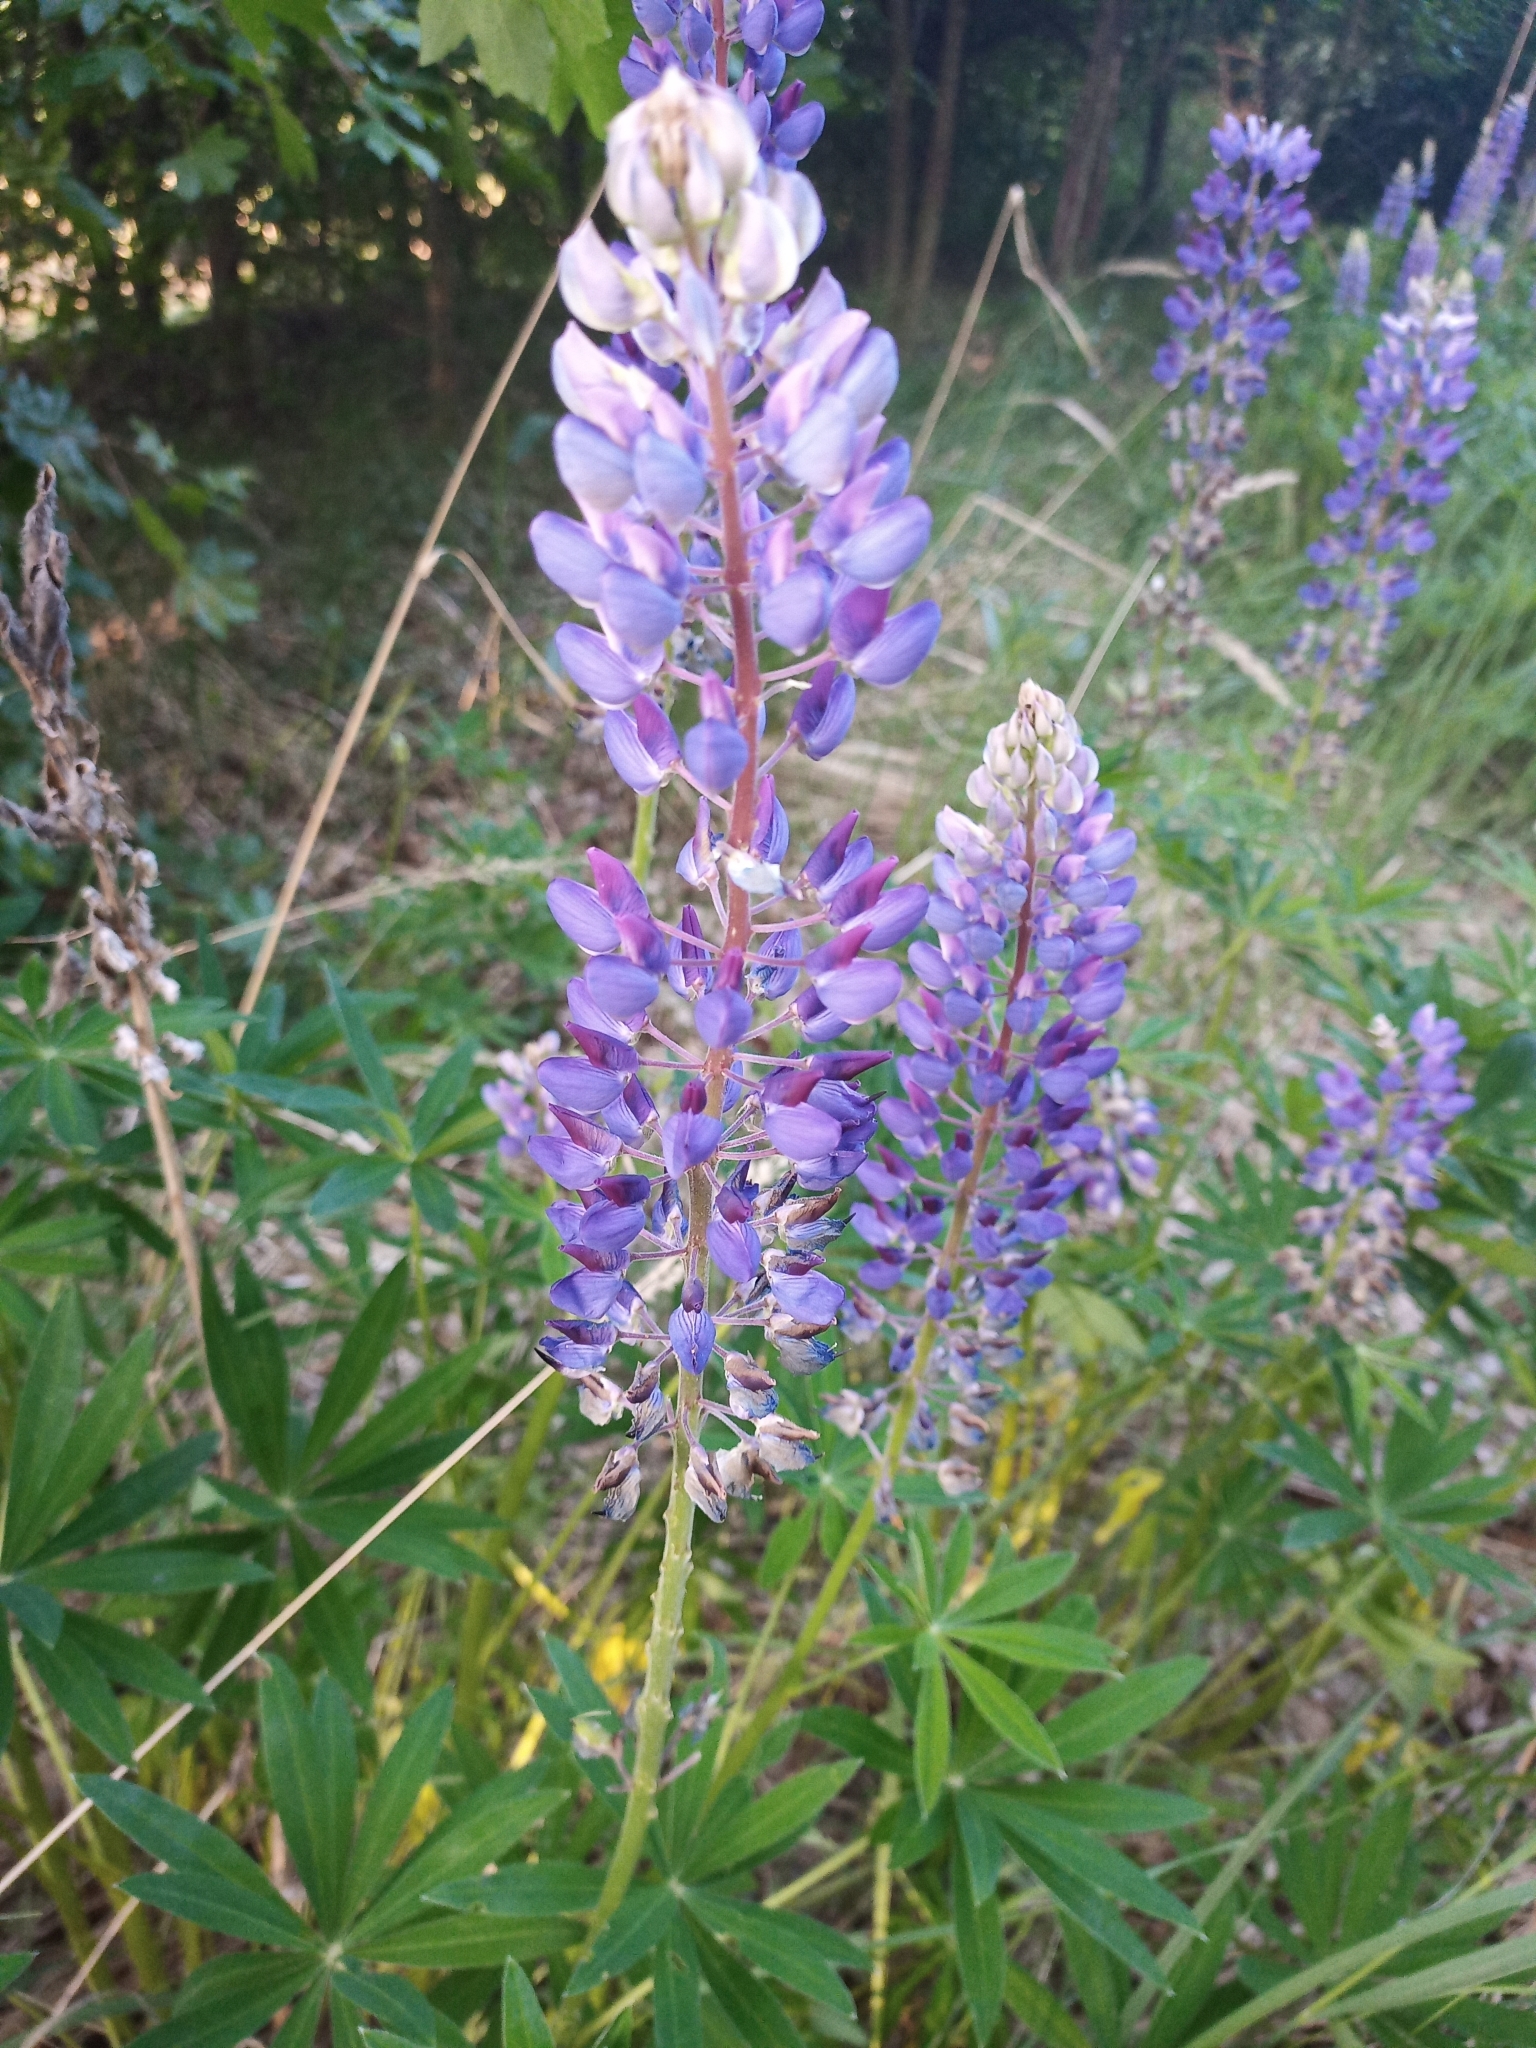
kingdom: Plantae
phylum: Tracheophyta
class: Magnoliopsida
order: Fabales
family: Fabaceae
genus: Lupinus
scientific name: Lupinus polyphyllus
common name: Garden lupin
